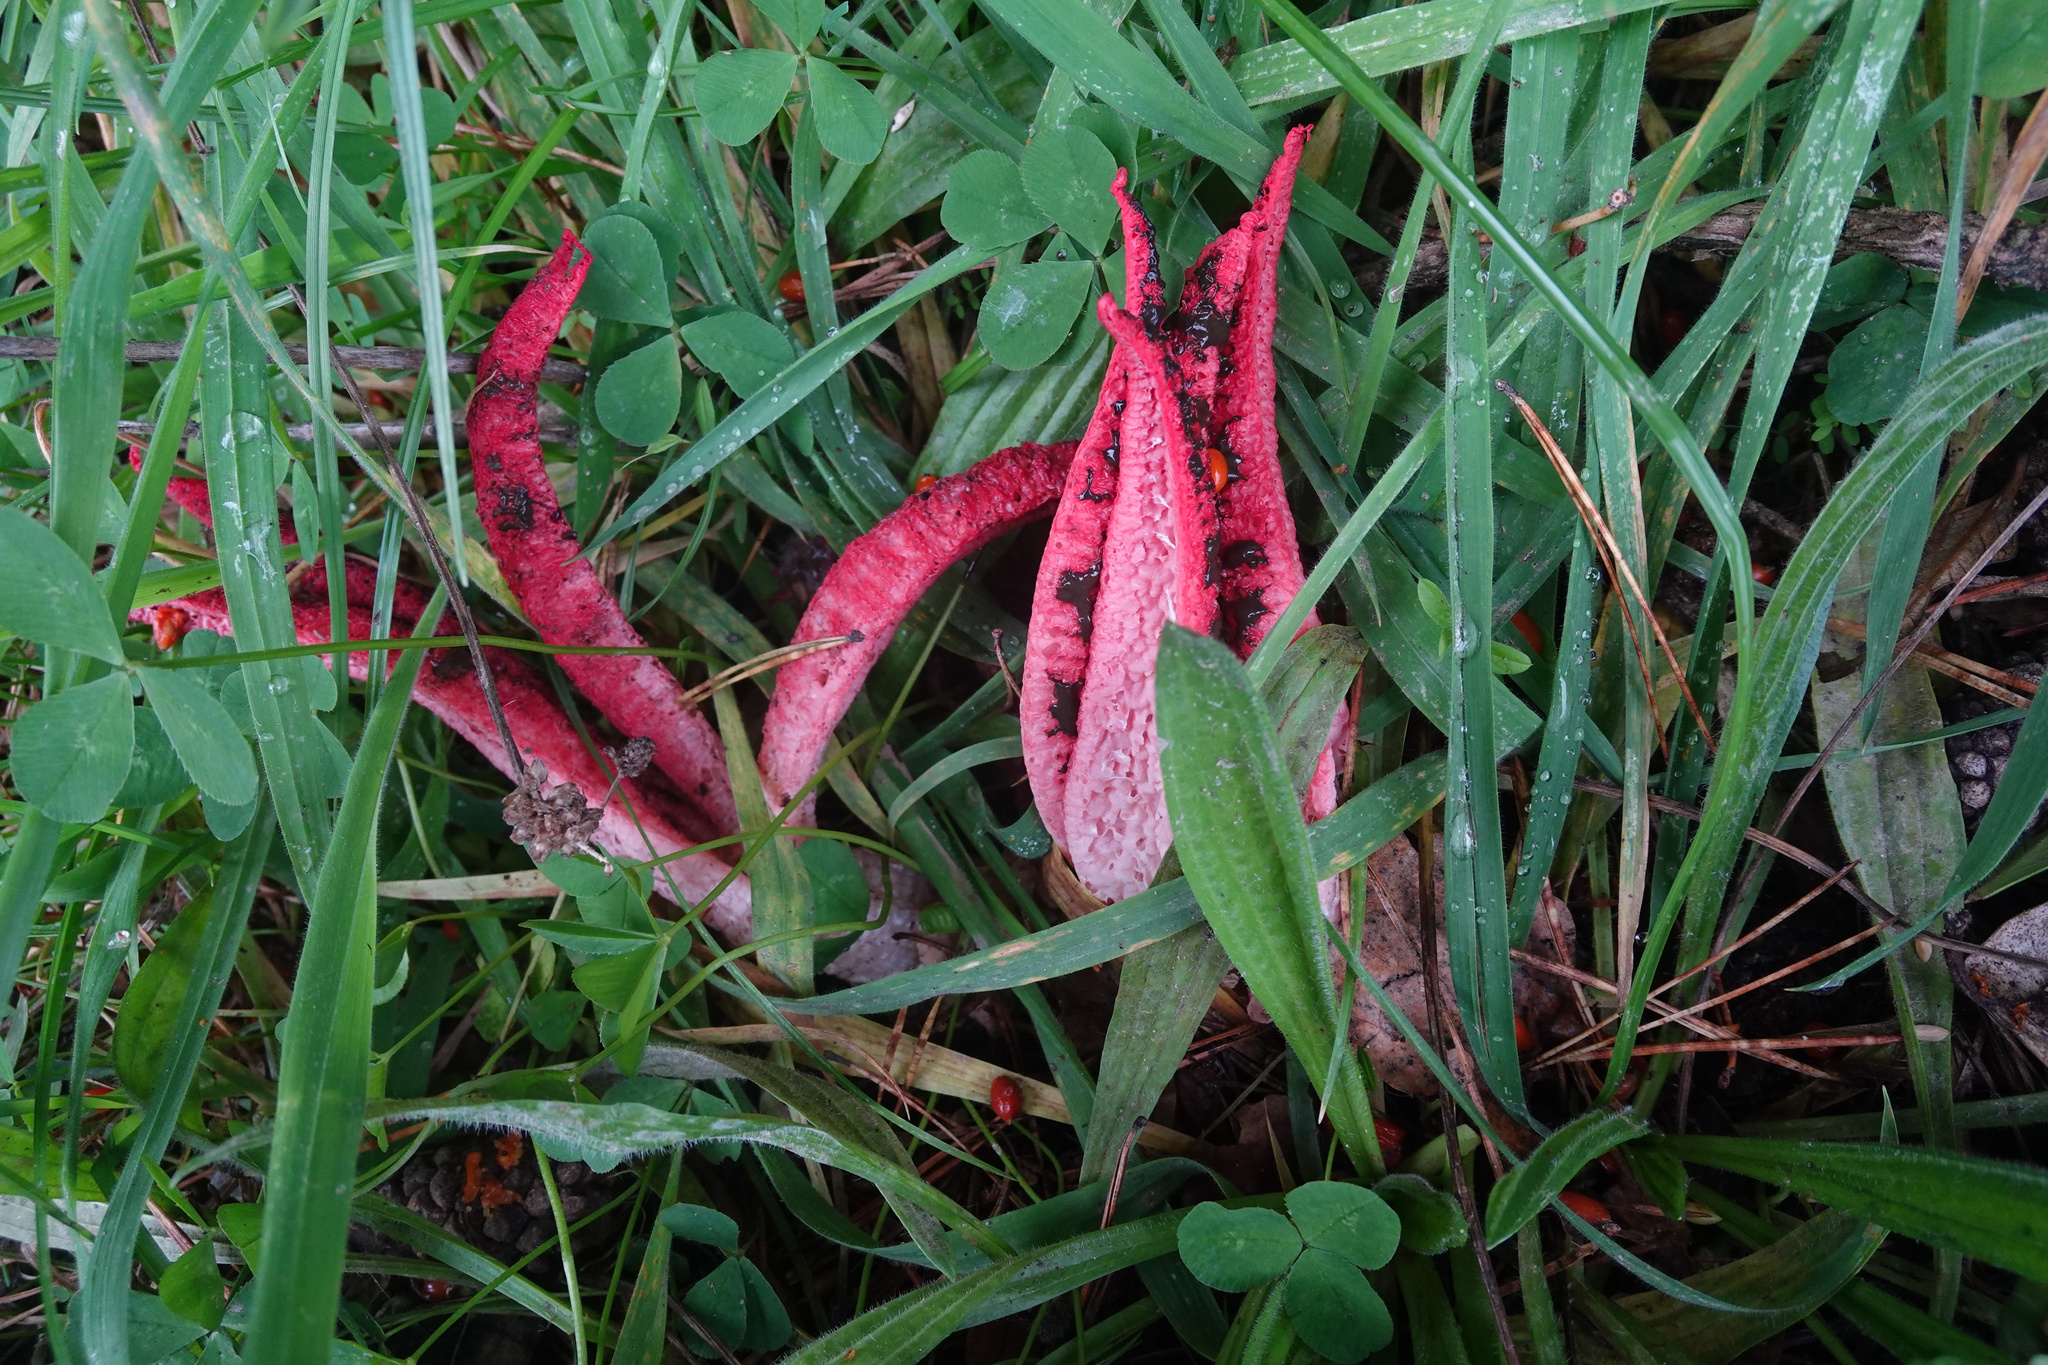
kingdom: Fungi
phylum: Basidiomycota
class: Agaricomycetes
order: Phallales
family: Phallaceae
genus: Clathrus
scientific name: Clathrus archeri
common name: Devil's fingers
